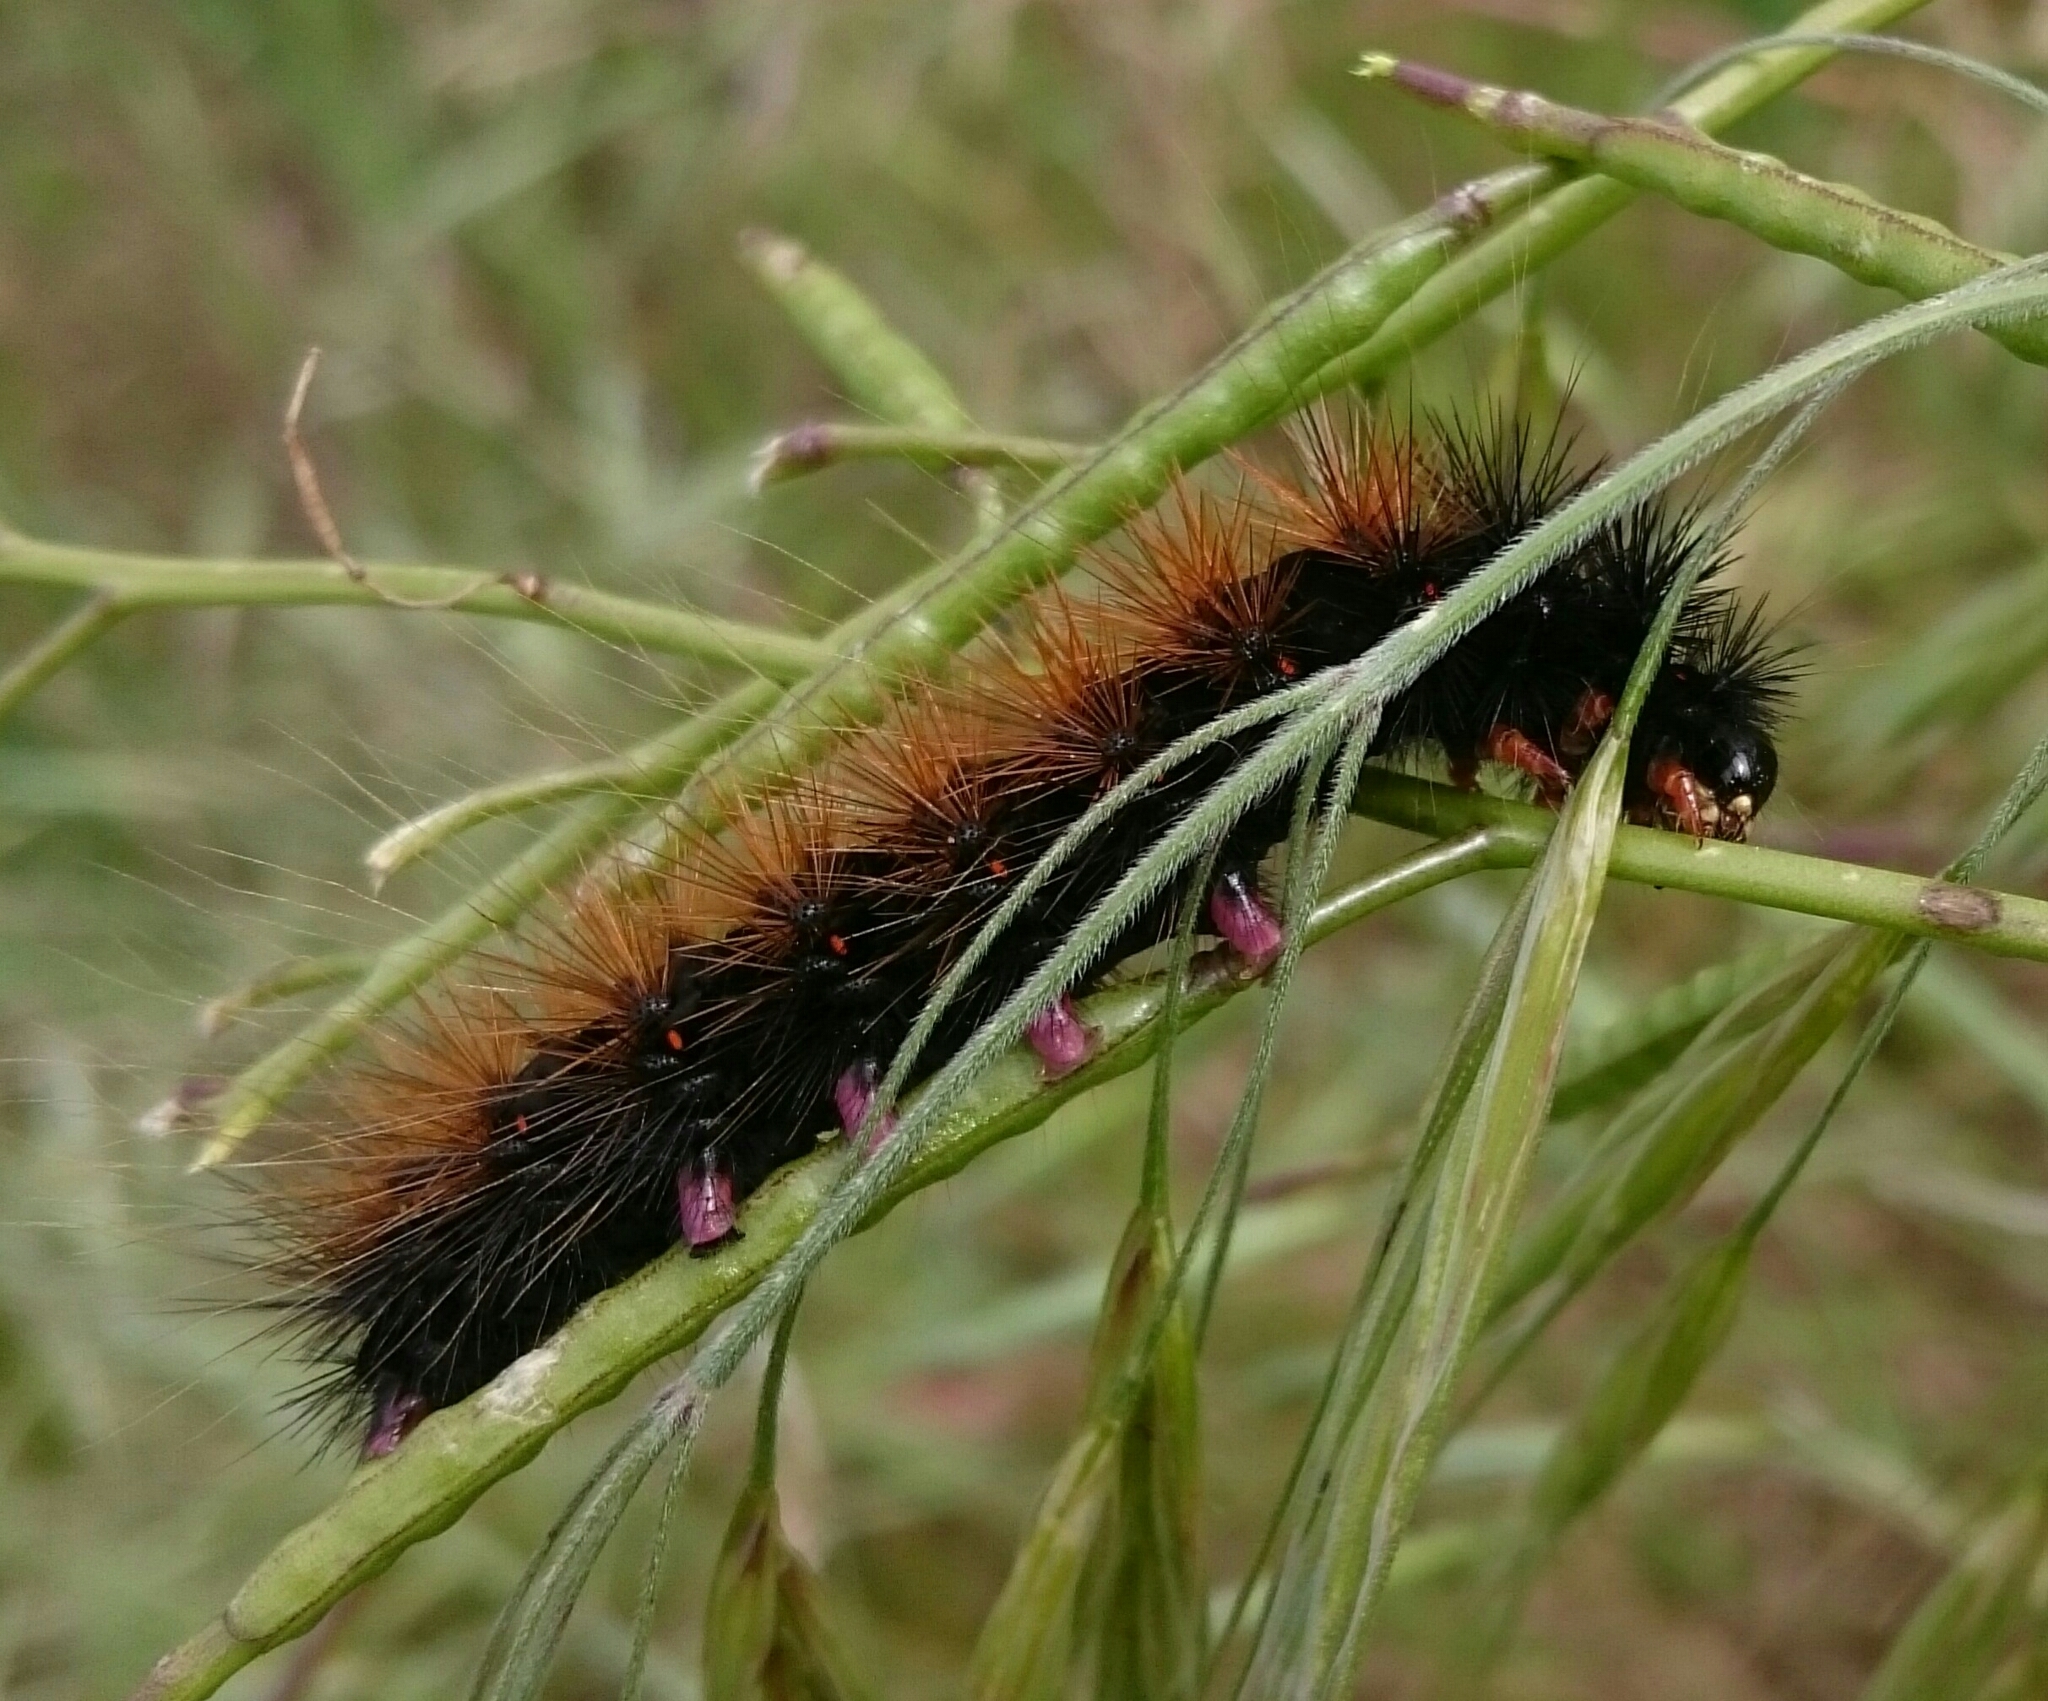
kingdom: Animalia
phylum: Arthropoda
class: Insecta
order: Lepidoptera
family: Erebidae
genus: Rhodogastria
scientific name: Rhodogastria amasis
